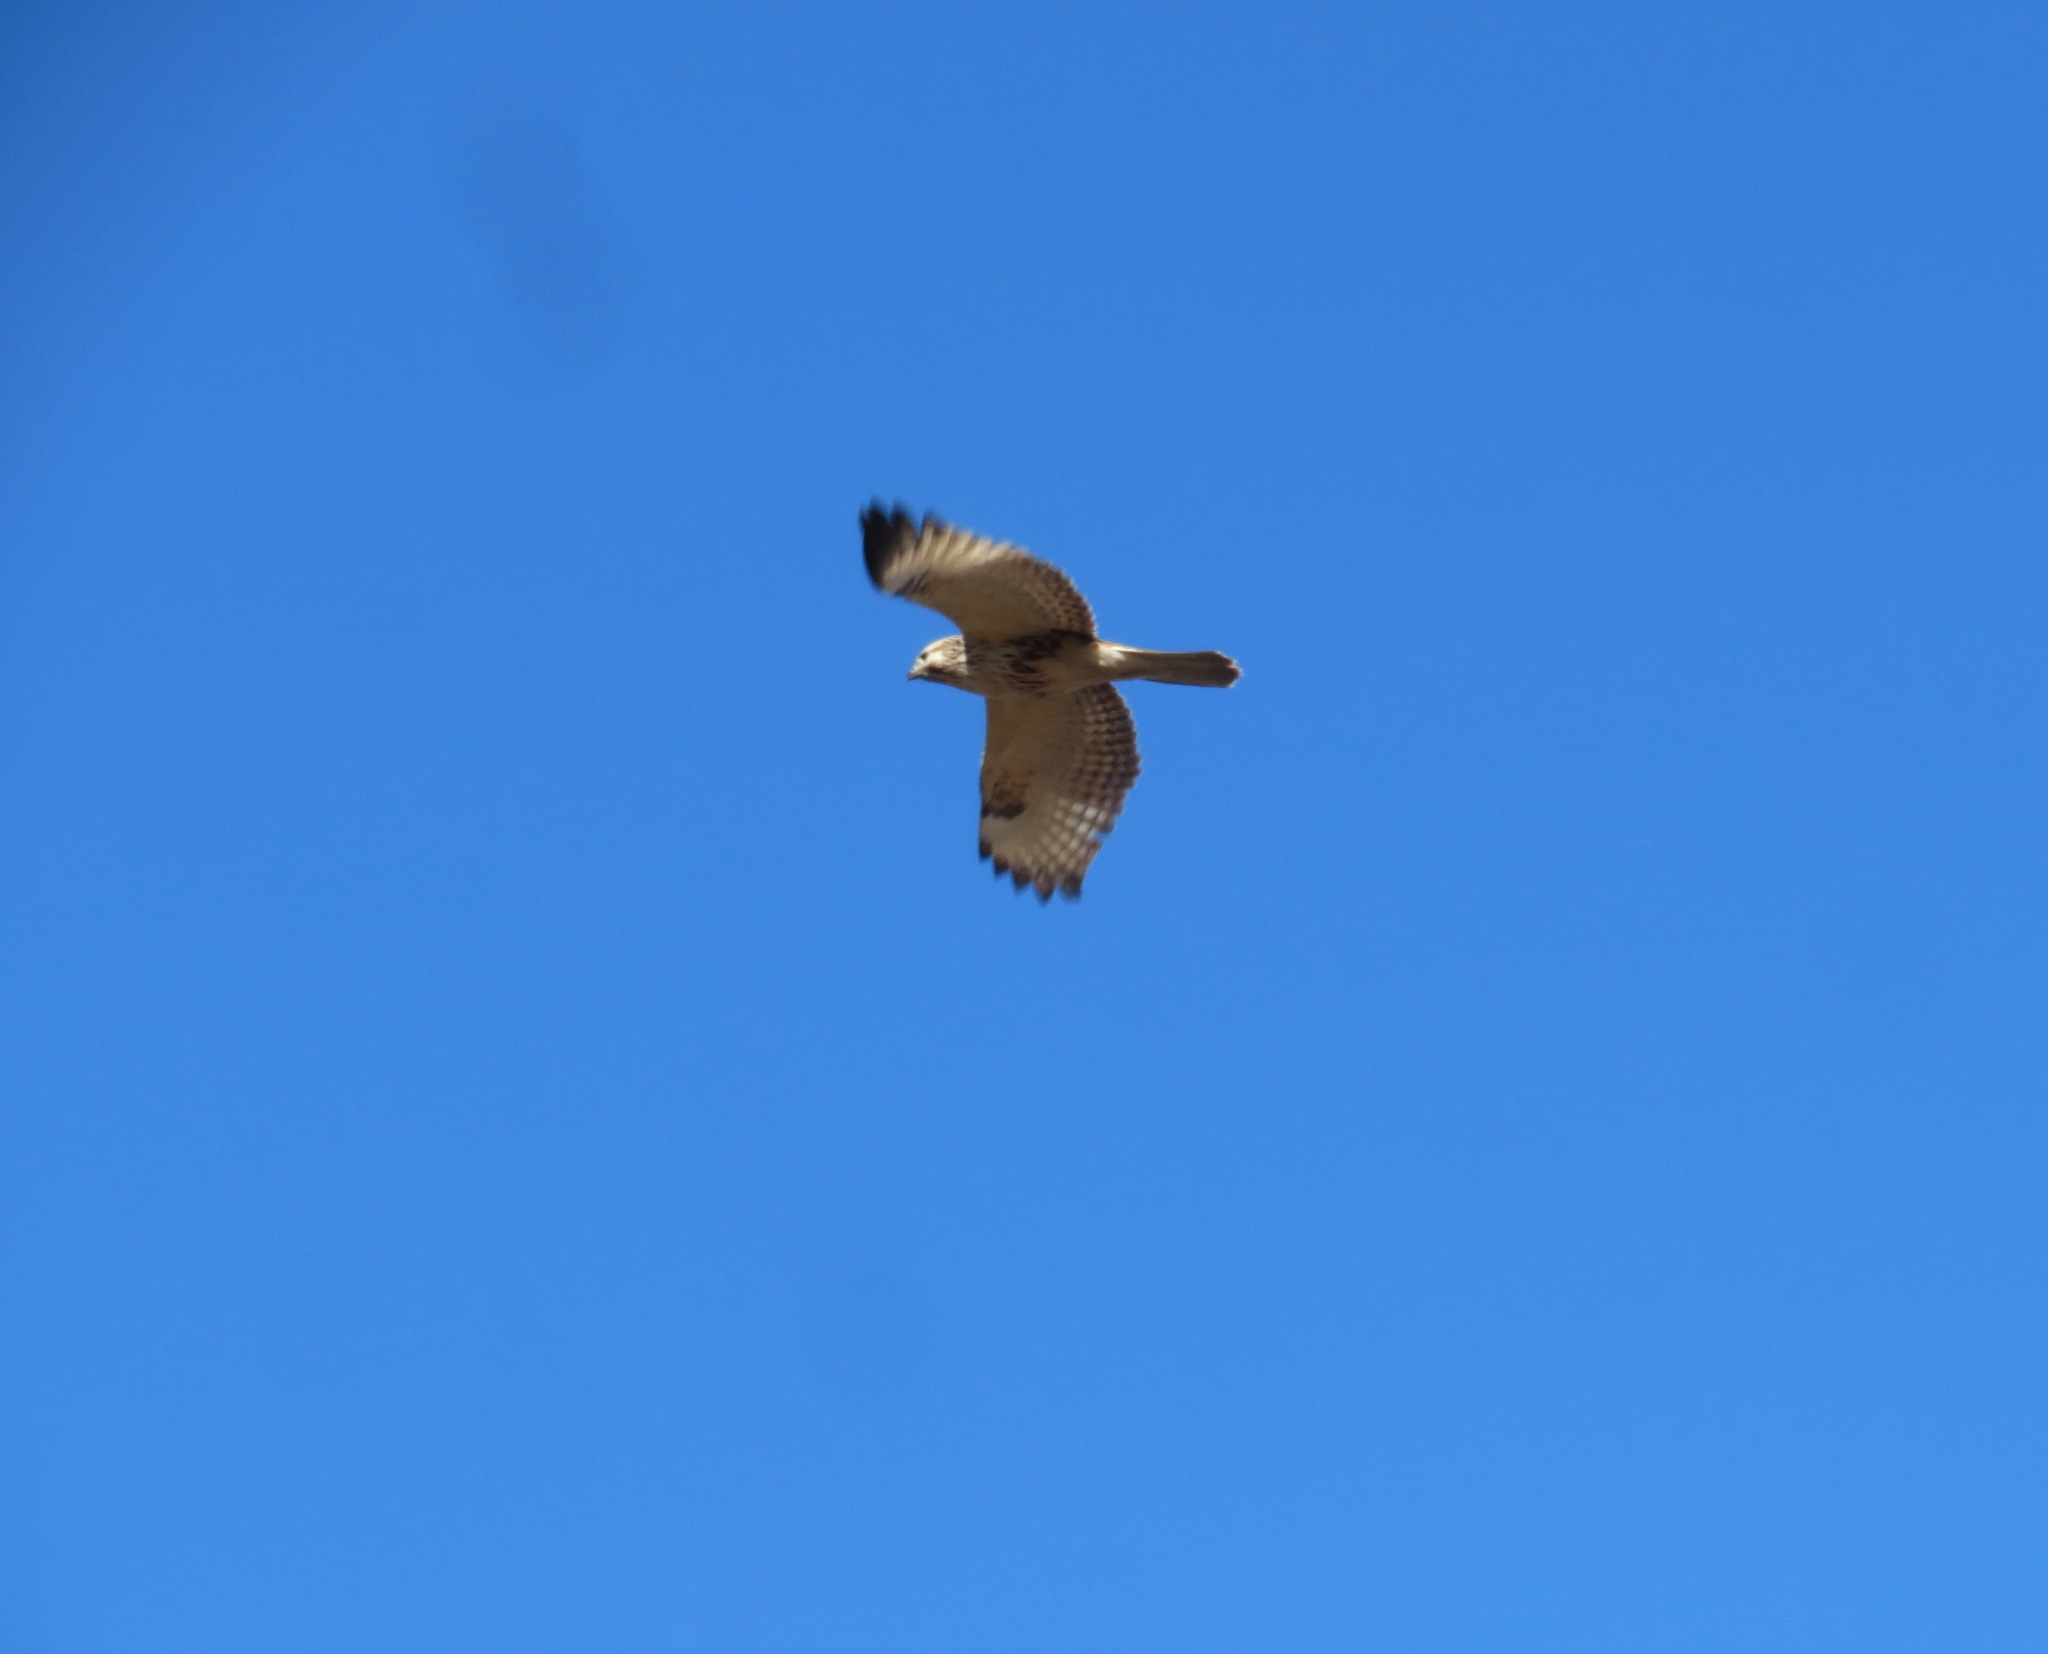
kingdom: Animalia
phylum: Chordata
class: Aves
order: Accipitriformes
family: Accipitridae
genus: Buteo
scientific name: Buteo japonicus
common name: Eastern buzzard
